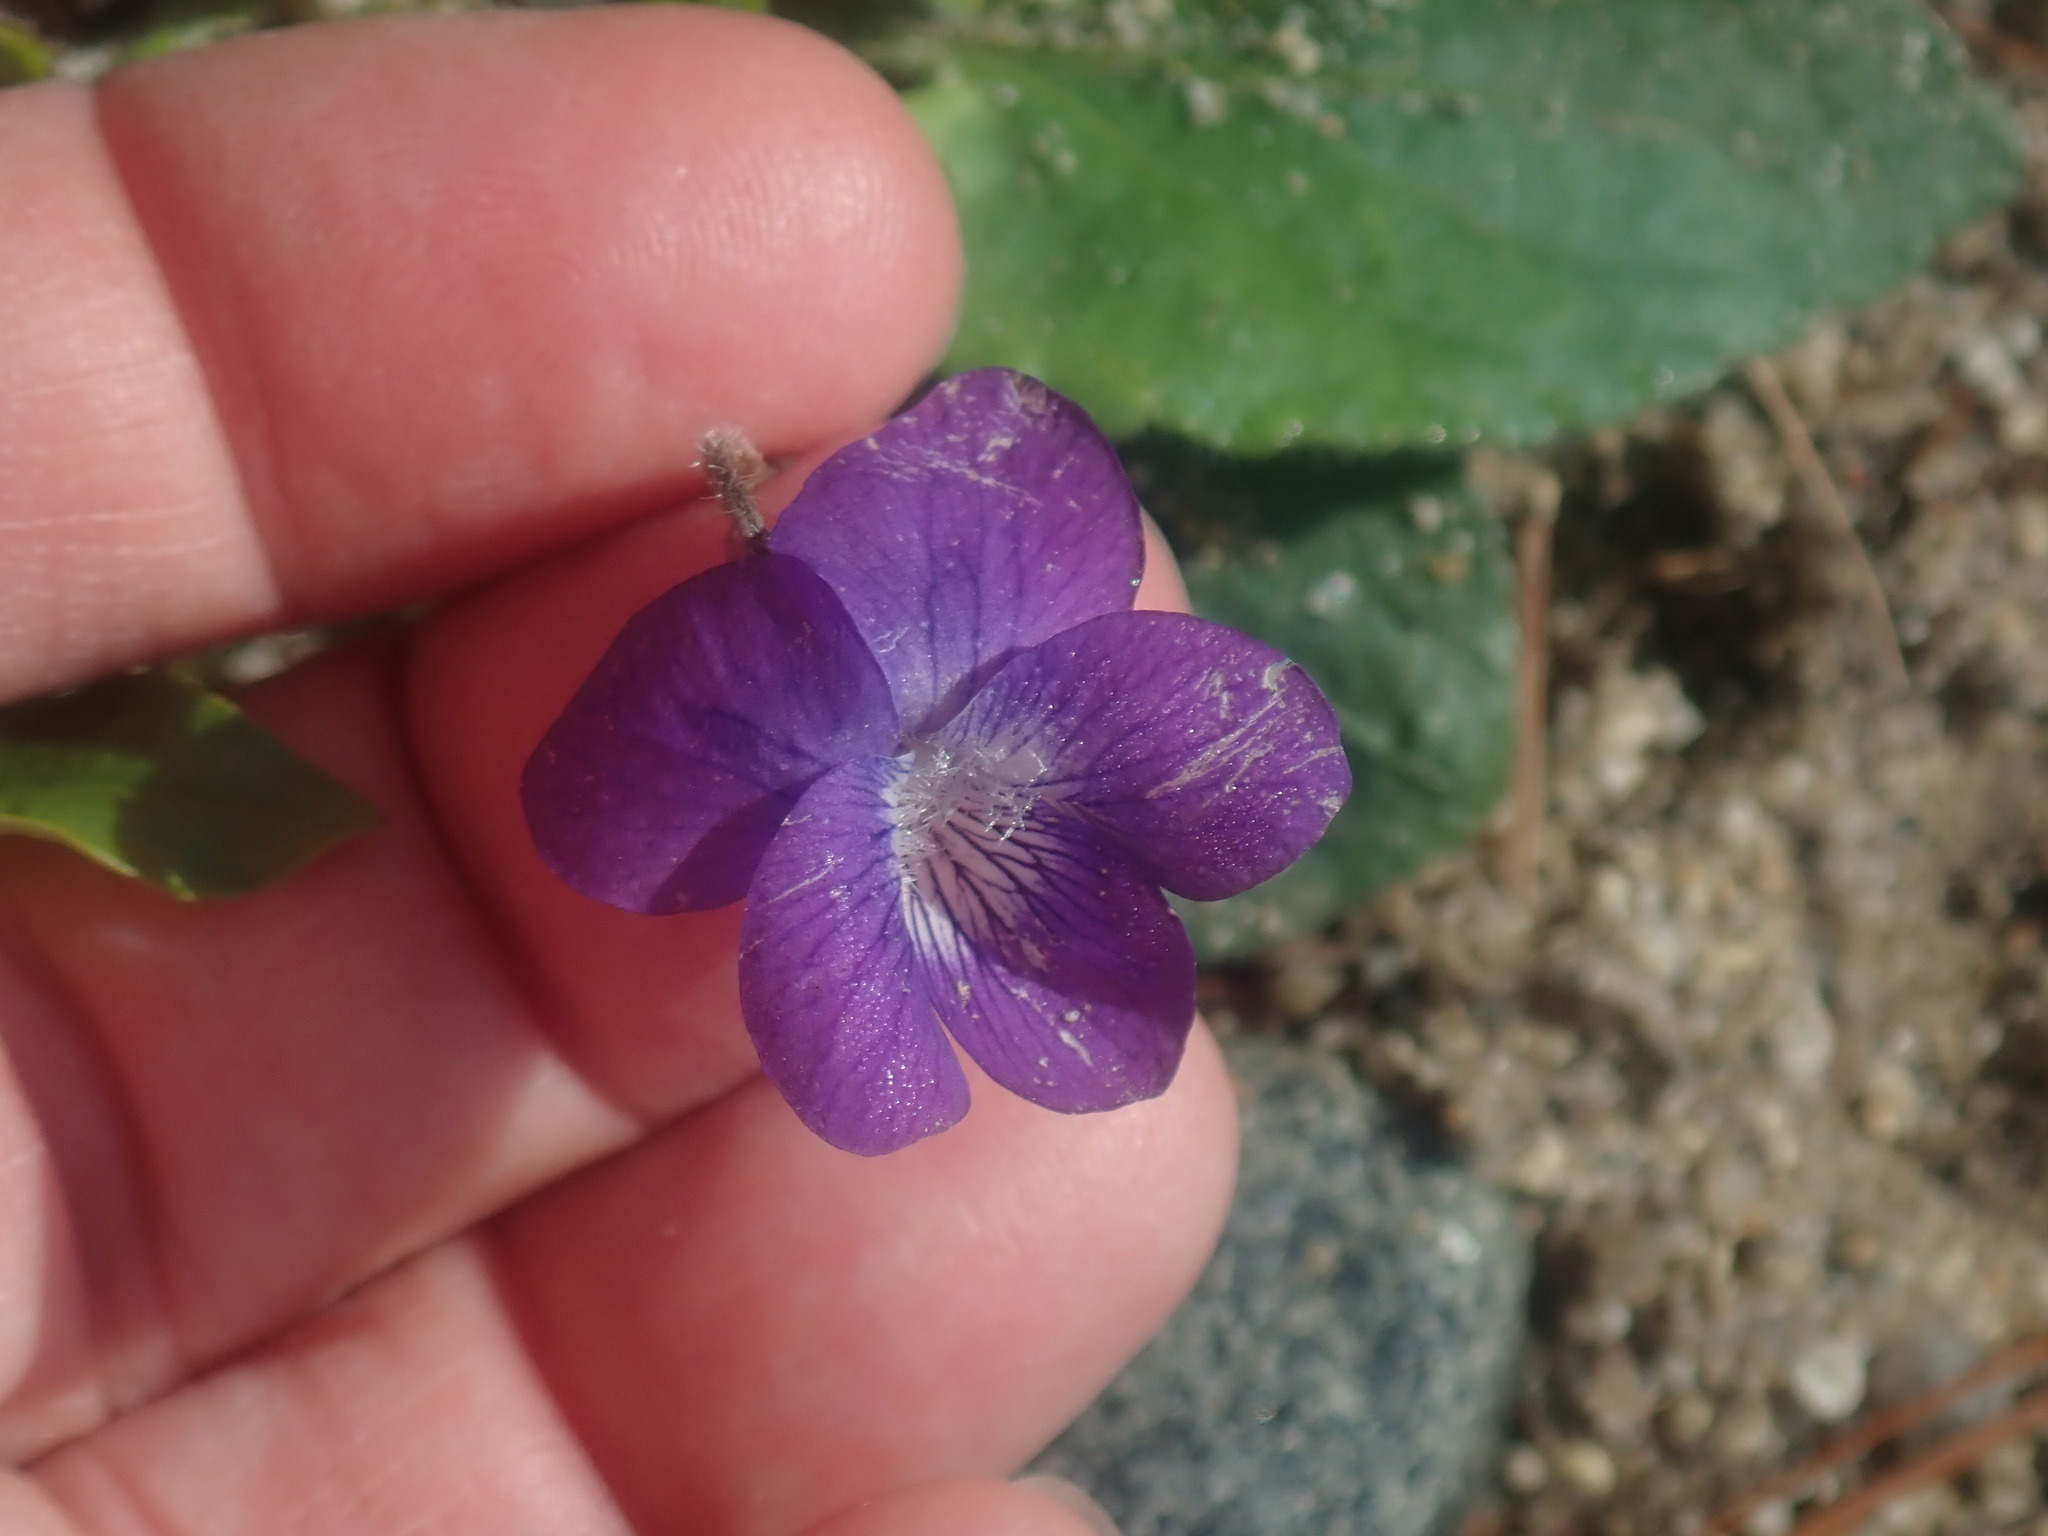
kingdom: Plantae
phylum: Tracheophyta
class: Magnoliopsida
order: Malpighiales
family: Violaceae
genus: Viola
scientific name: Viola fimbriatula
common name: Sand violet
